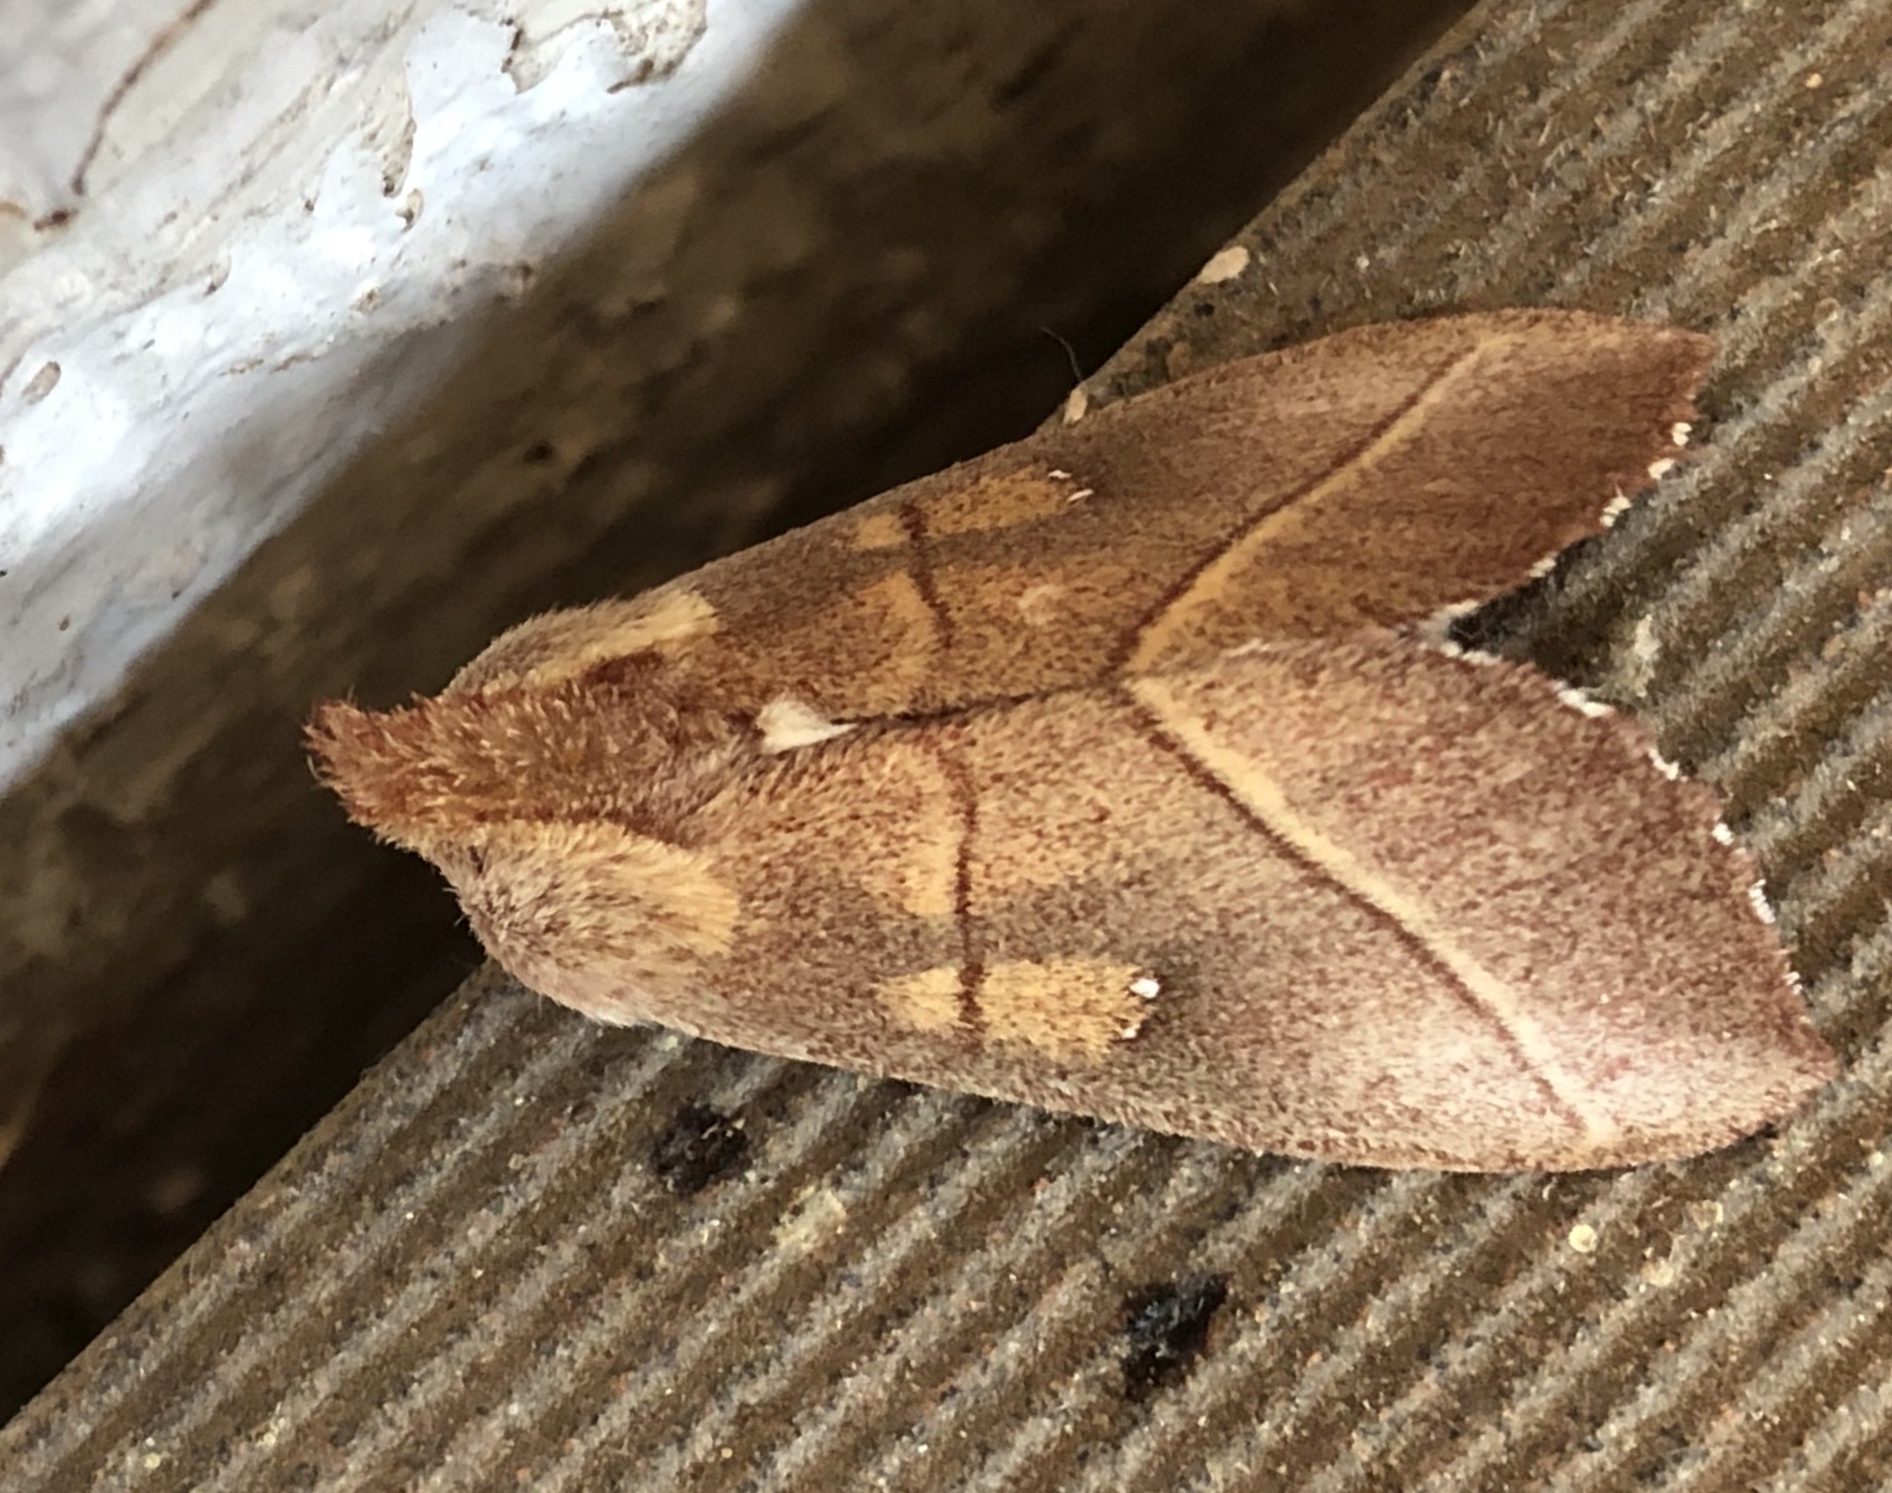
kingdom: Animalia
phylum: Arthropoda
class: Insecta
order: Lepidoptera
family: Notodontidae
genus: Nadata
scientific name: Nadata gibbosa
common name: White-dotted prominent
